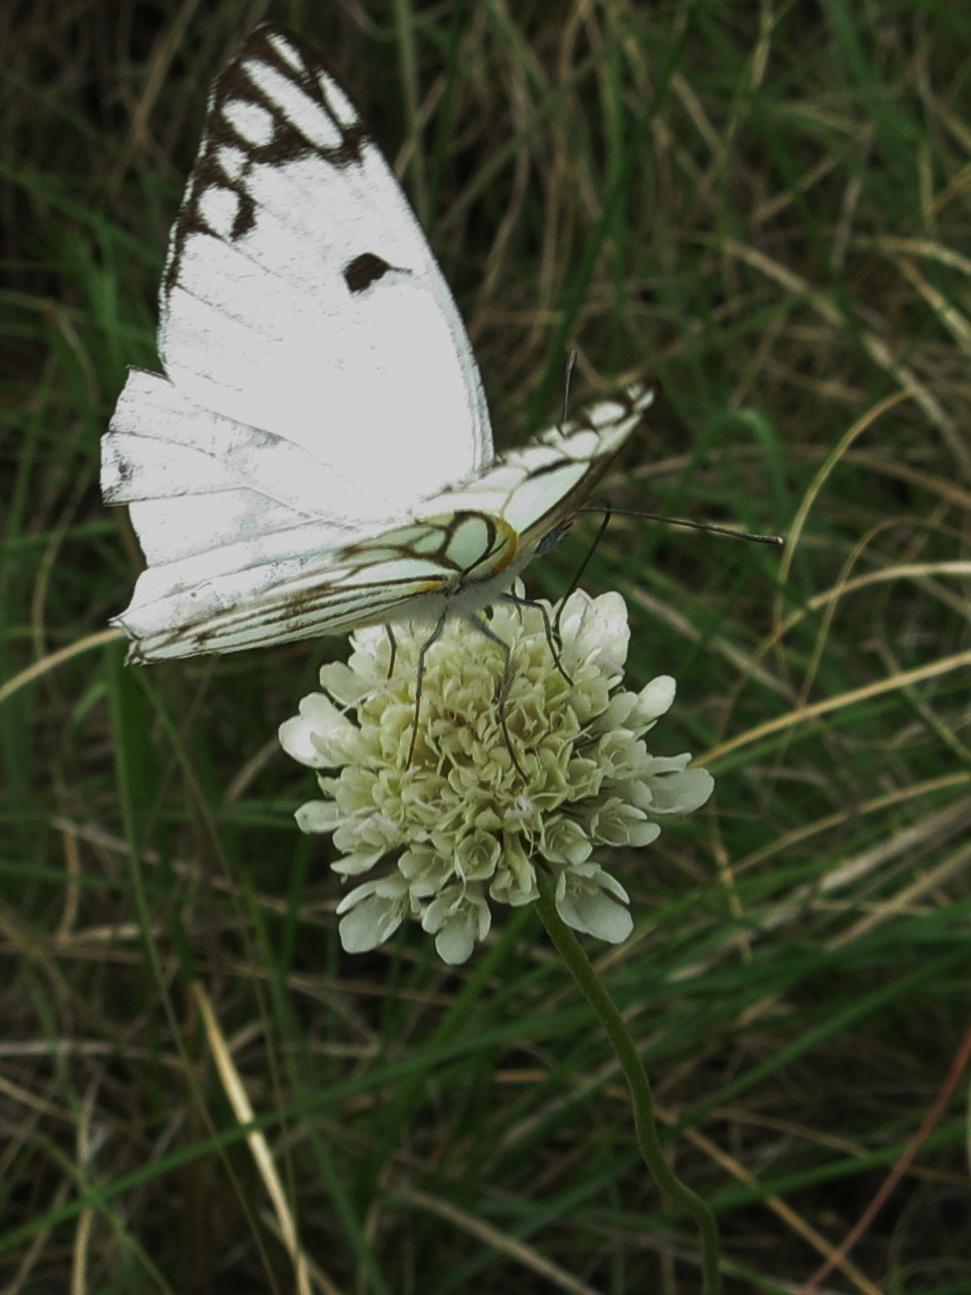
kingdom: Animalia
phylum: Arthropoda
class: Insecta
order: Lepidoptera
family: Pieridae
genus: Belenois
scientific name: Belenois aurota
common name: Brown-veined white
